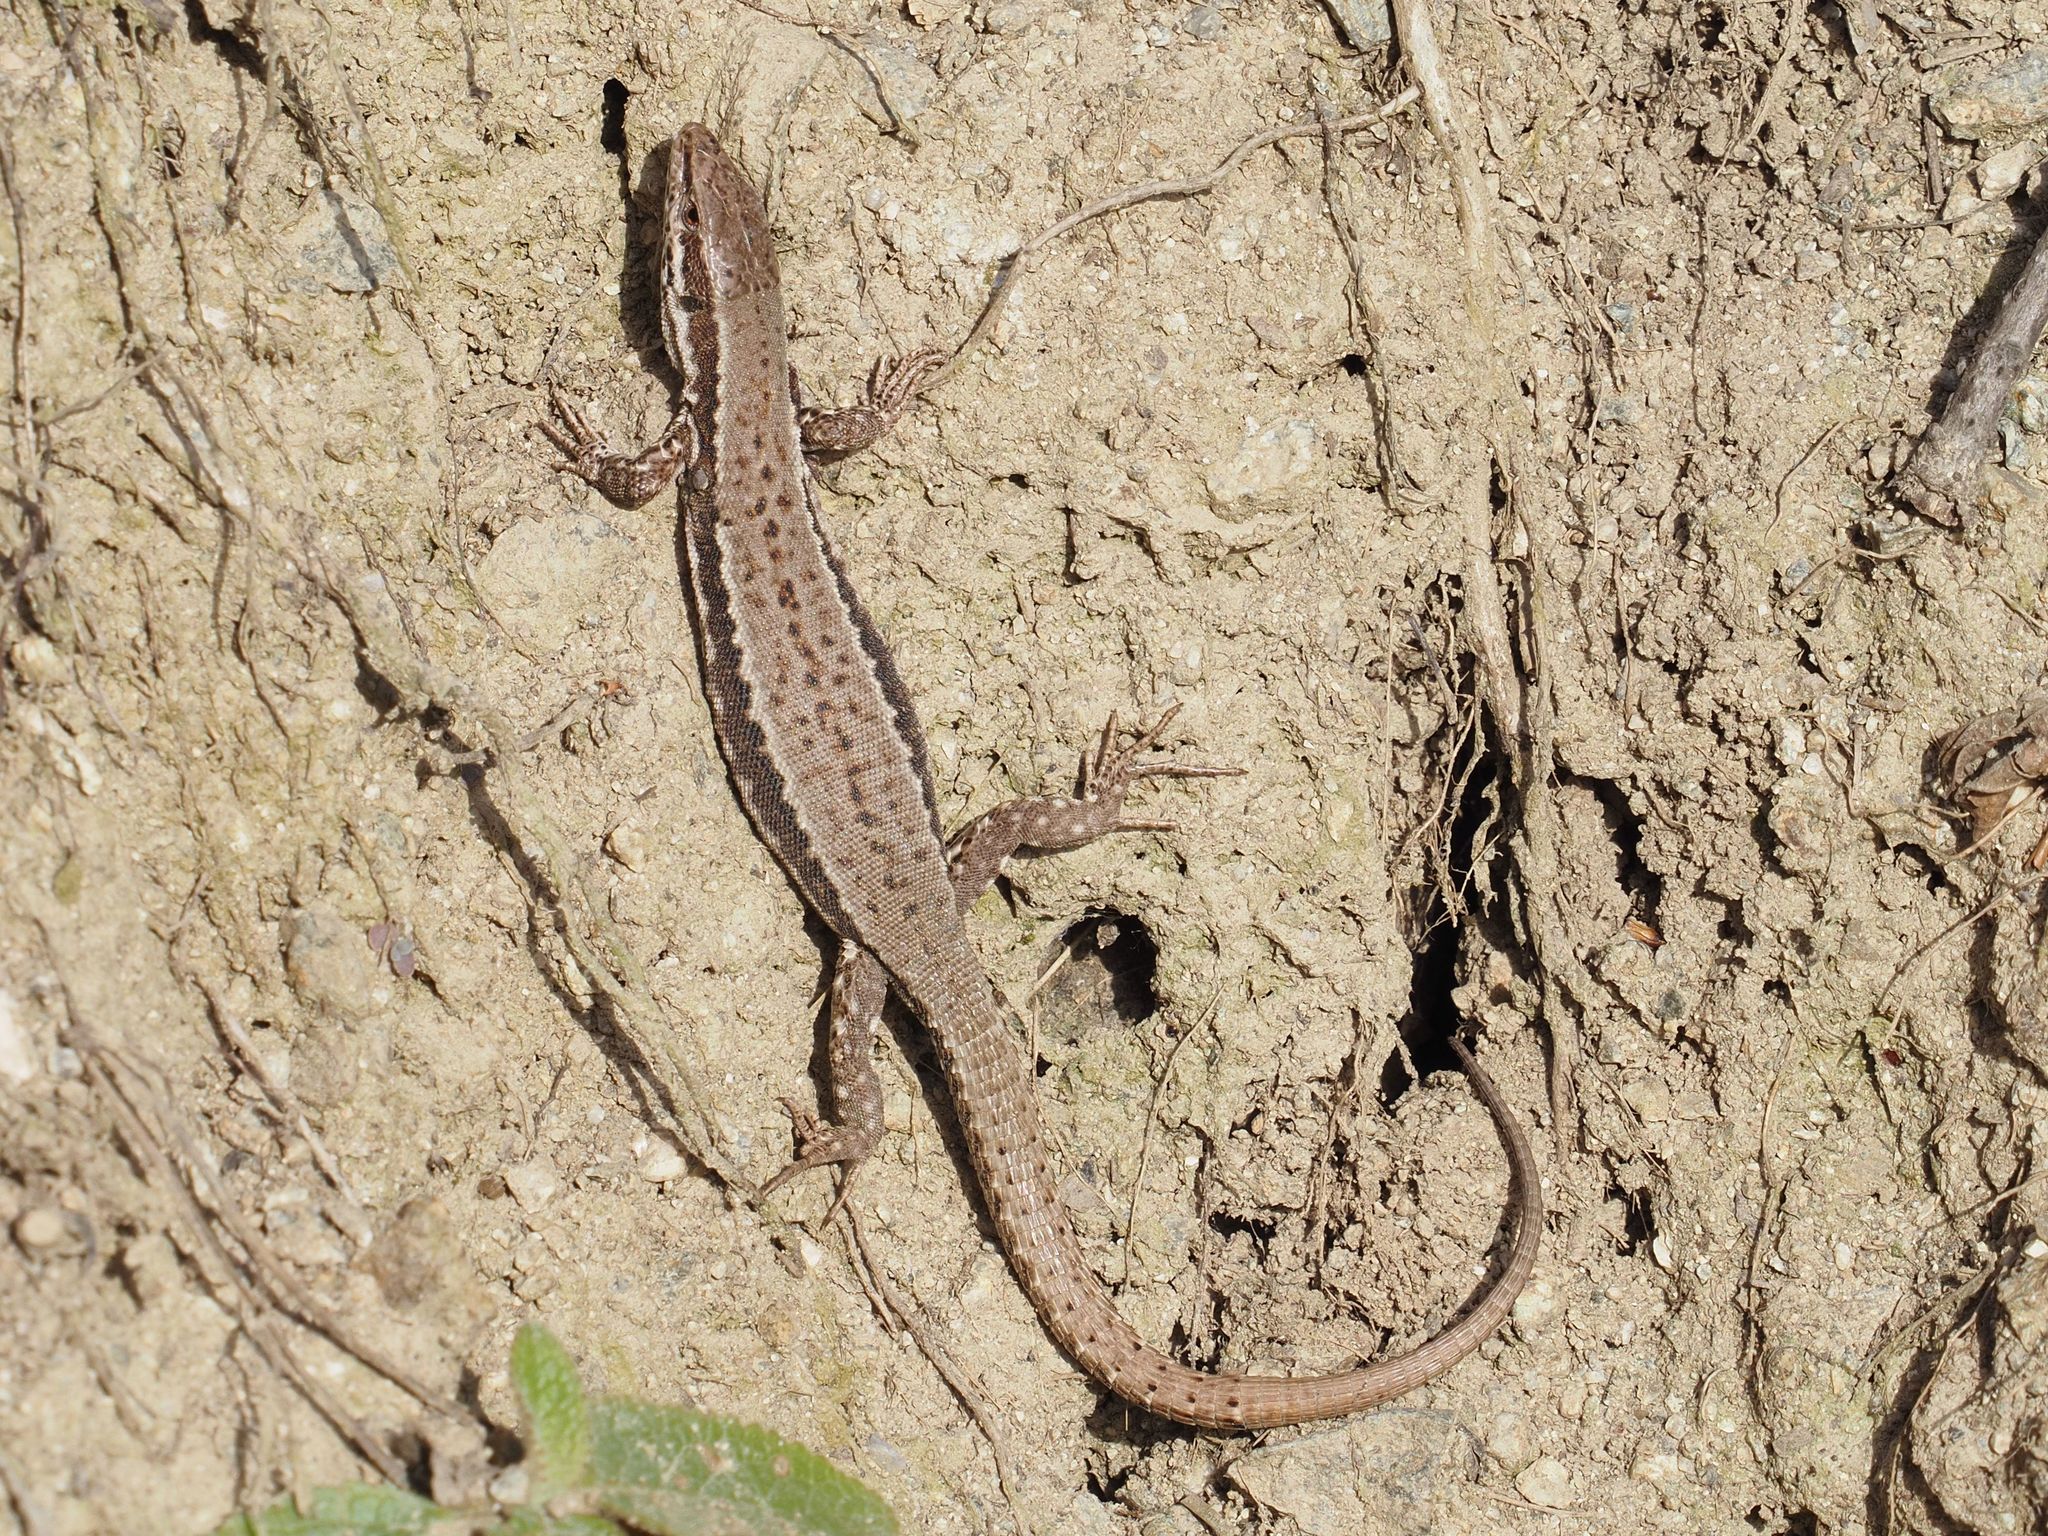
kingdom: Animalia
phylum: Chordata
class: Squamata
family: Lacertidae
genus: Podarcis
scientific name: Podarcis muralis
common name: Common wall lizard
